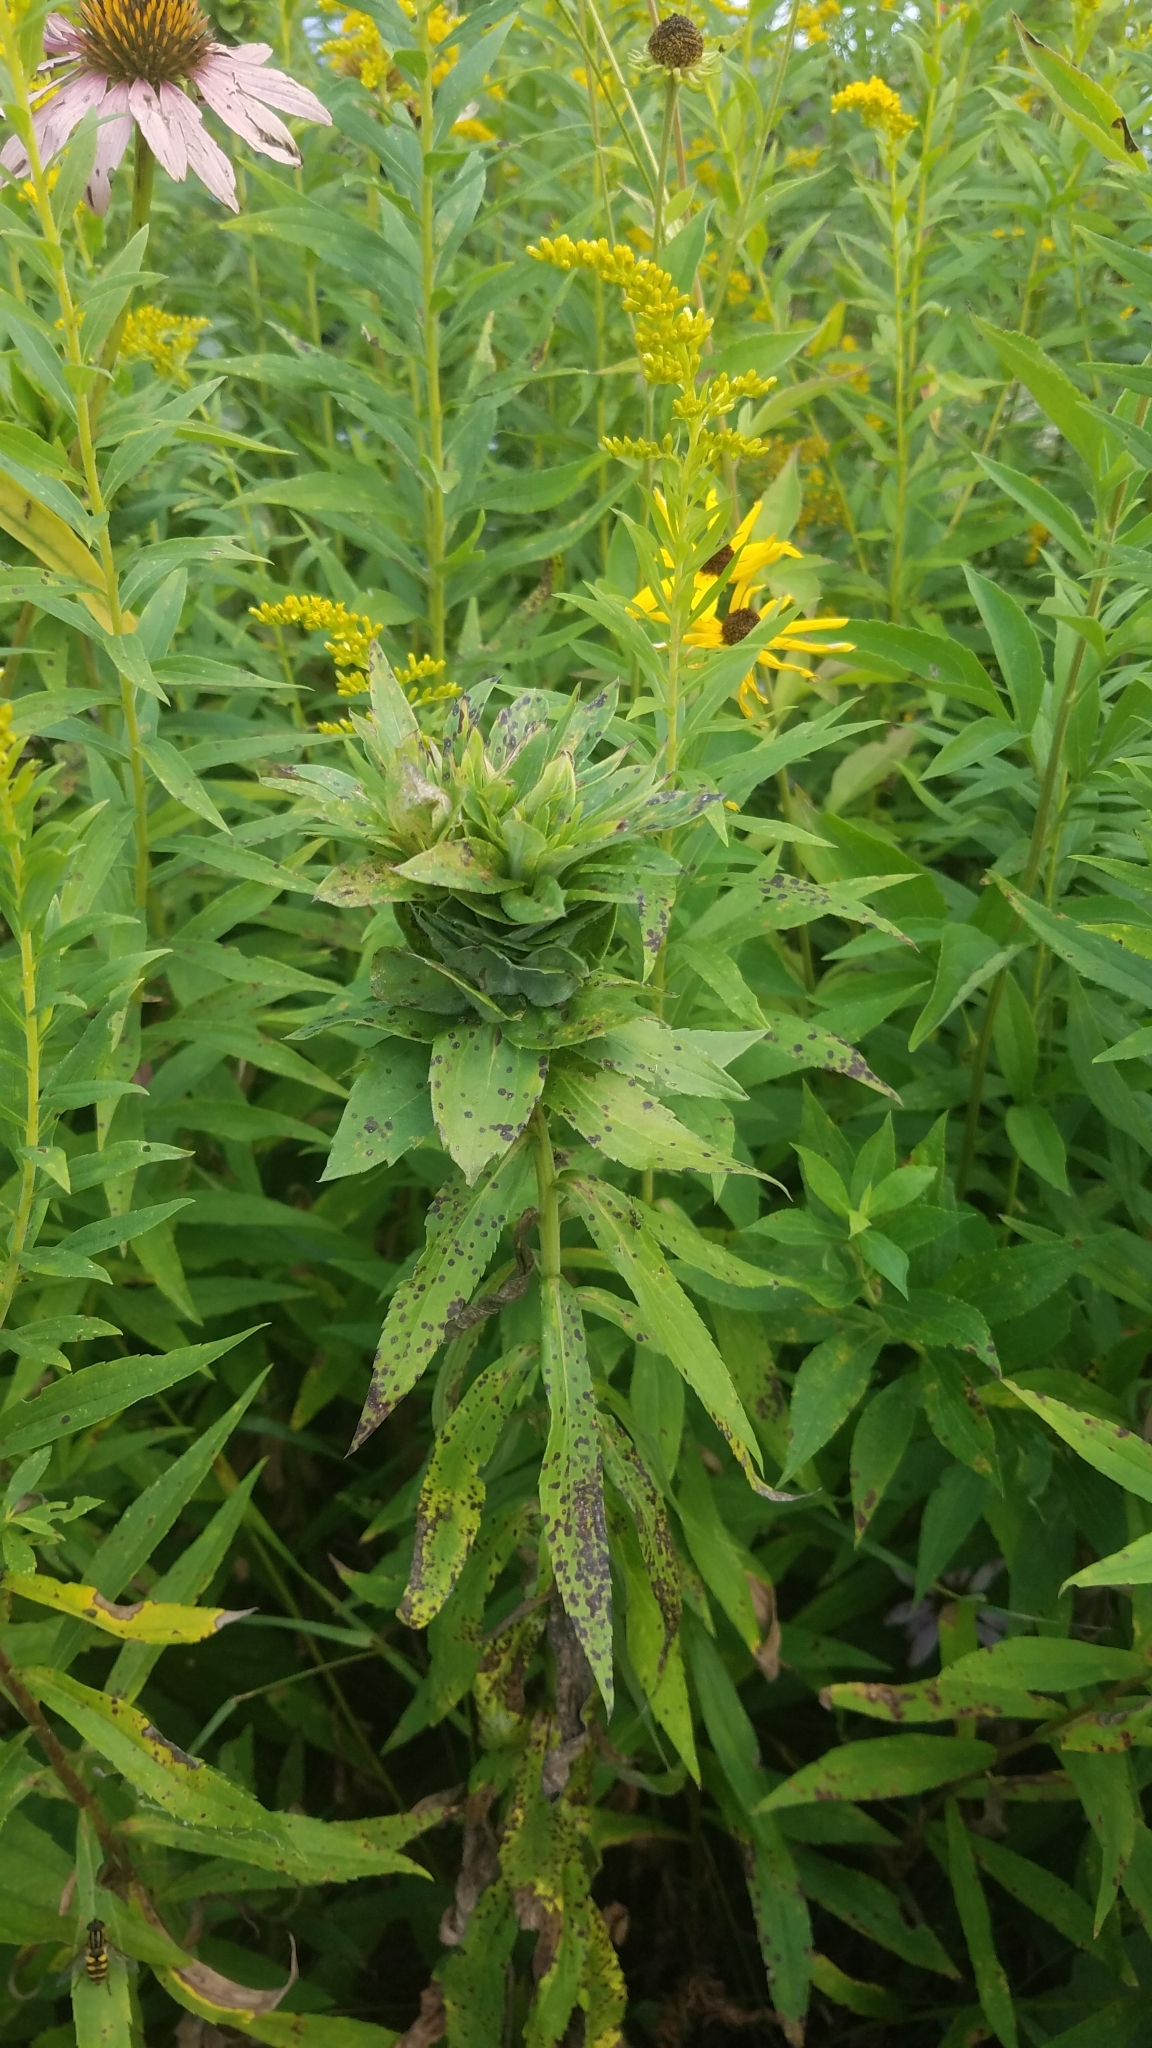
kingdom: Animalia
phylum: Arthropoda
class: Insecta
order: Diptera
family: Cecidomyiidae
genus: Rhopalomyia
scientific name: Rhopalomyia solidaginis
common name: Goldenrod bunch gall midge
